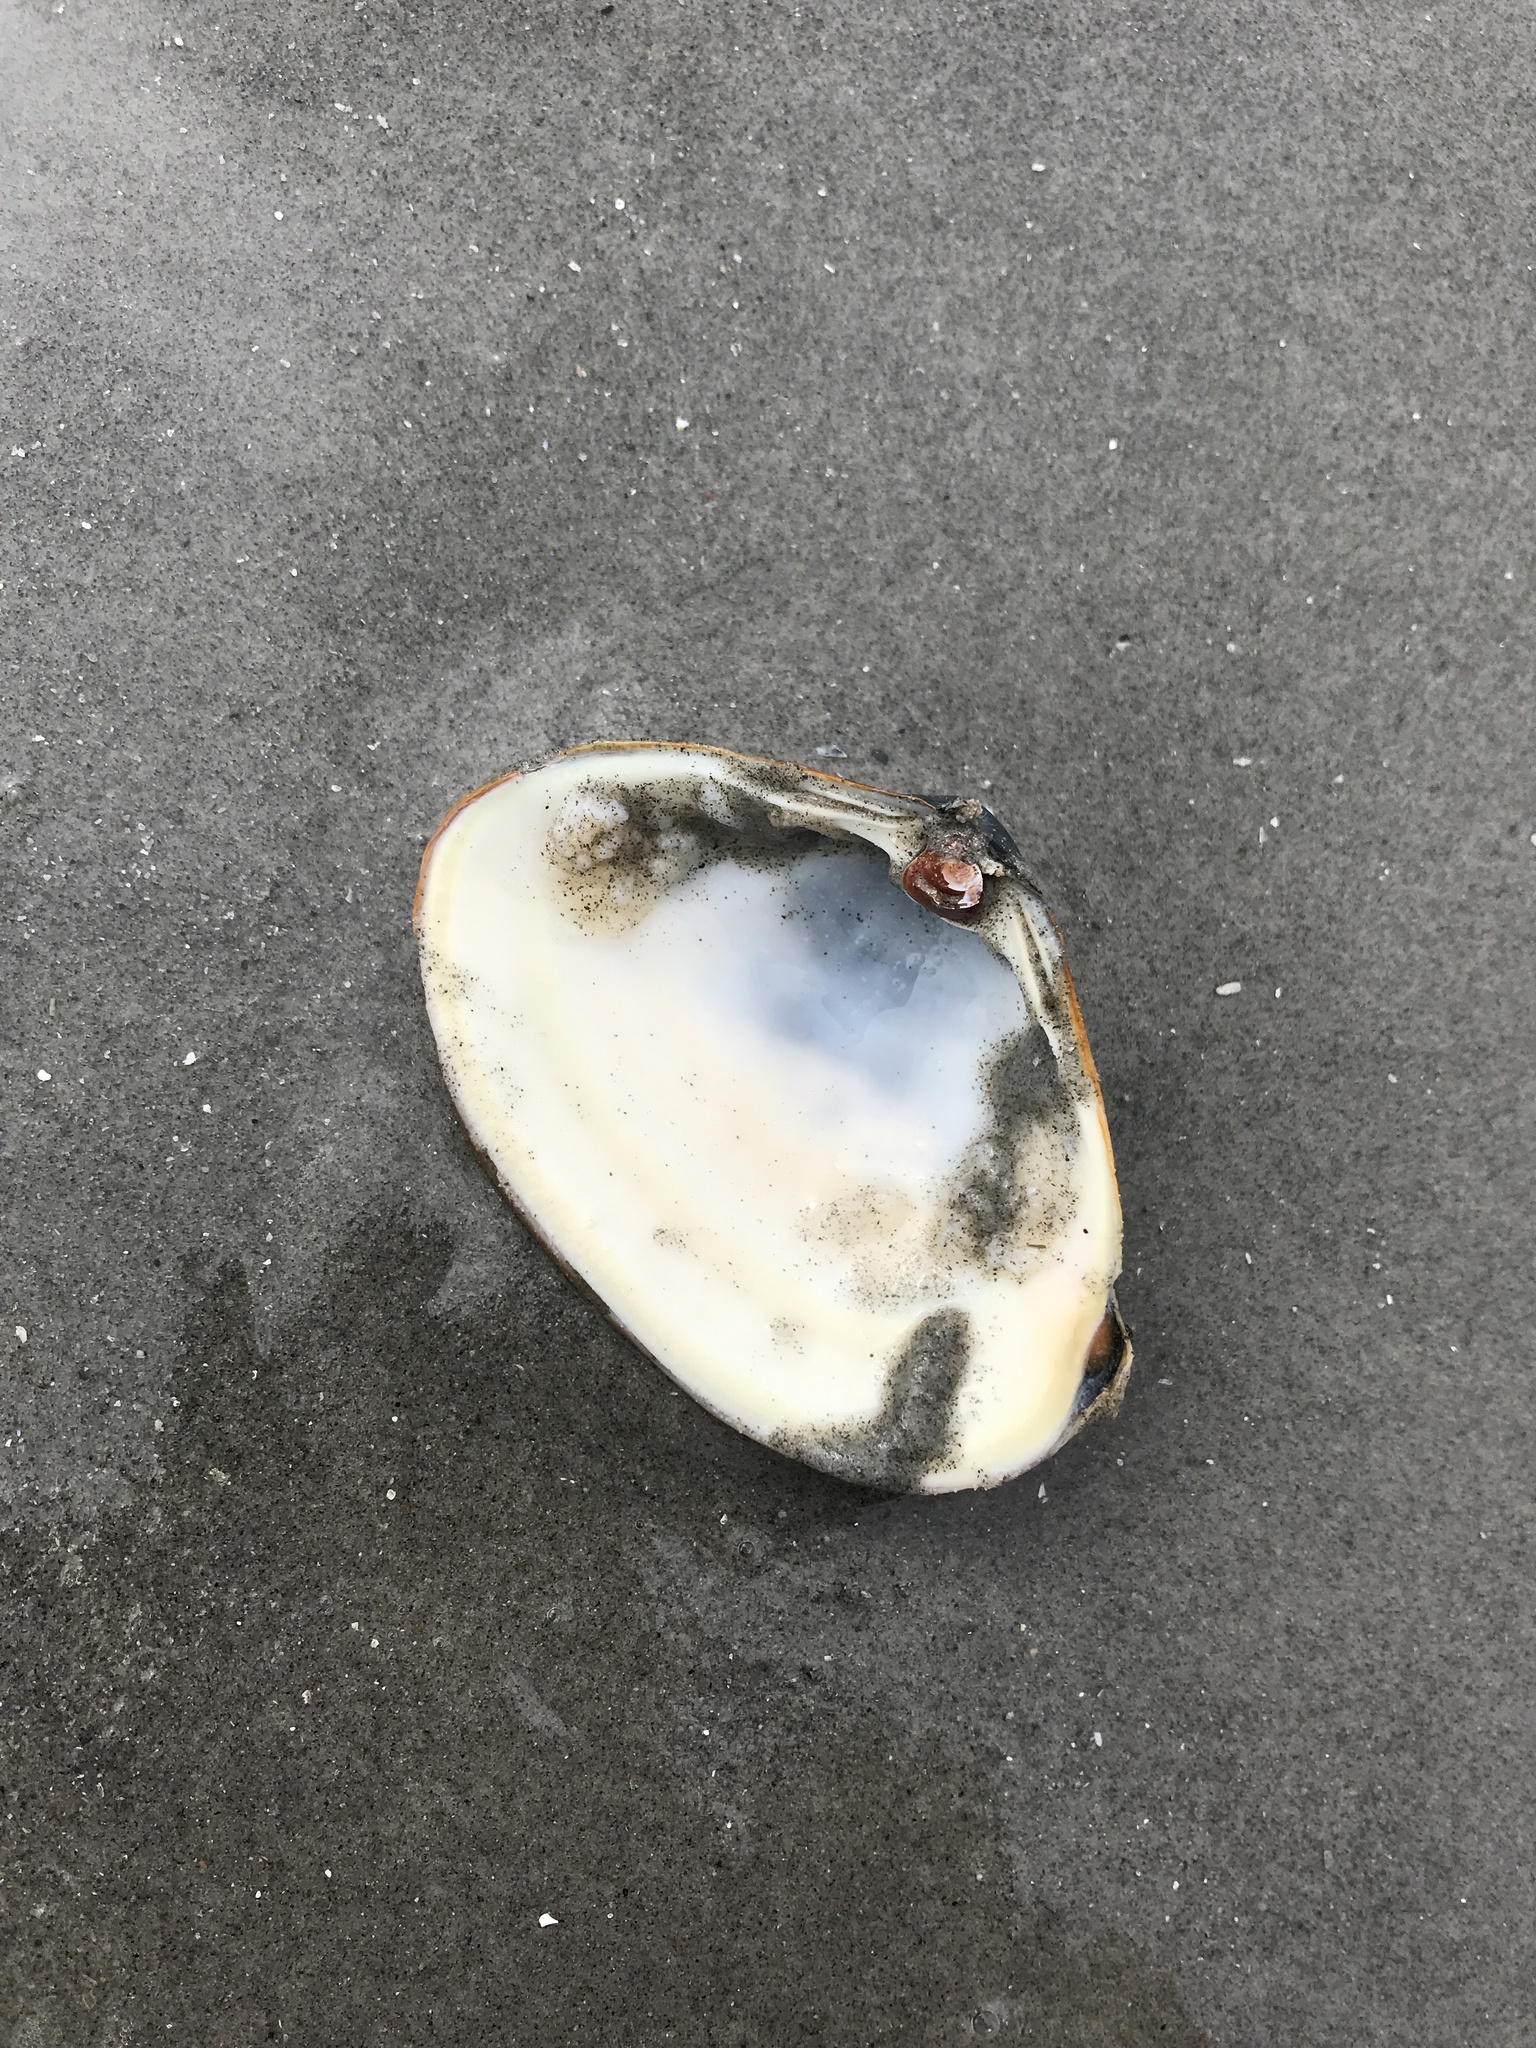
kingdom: Animalia
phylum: Mollusca
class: Bivalvia
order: Venerida
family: Mactridae
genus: Spisula
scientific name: Spisula solidissima
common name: Atlantic surf clam
